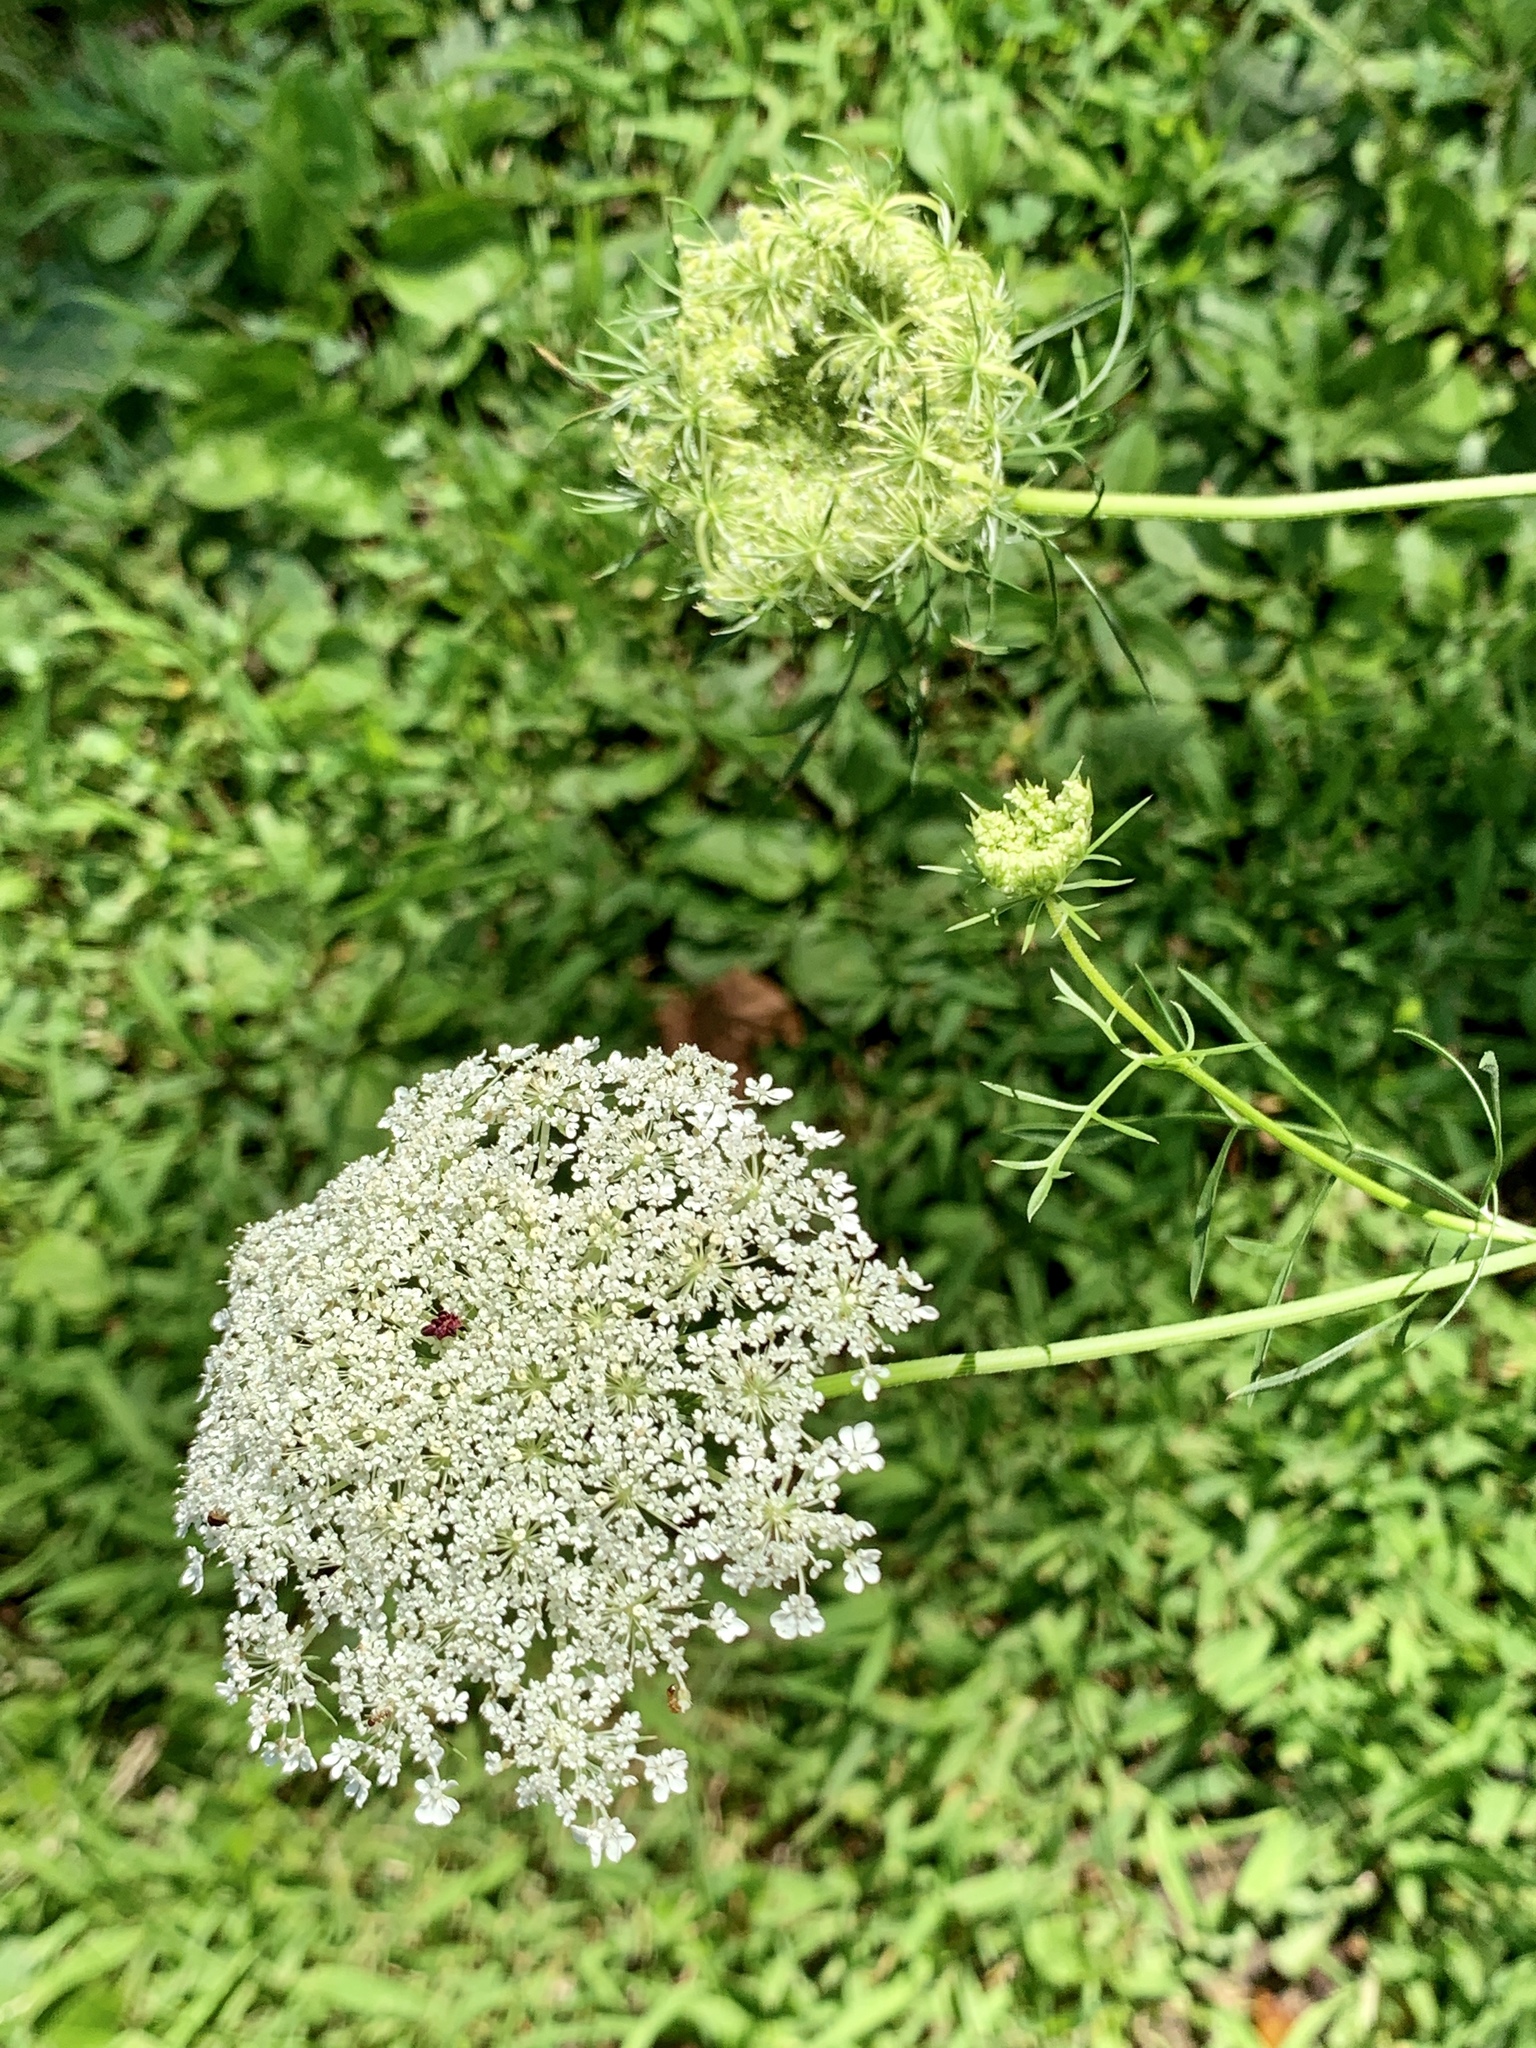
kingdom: Plantae
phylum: Tracheophyta
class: Magnoliopsida
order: Apiales
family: Apiaceae
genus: Daucus
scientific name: Daucus carota
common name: Wild carrot
